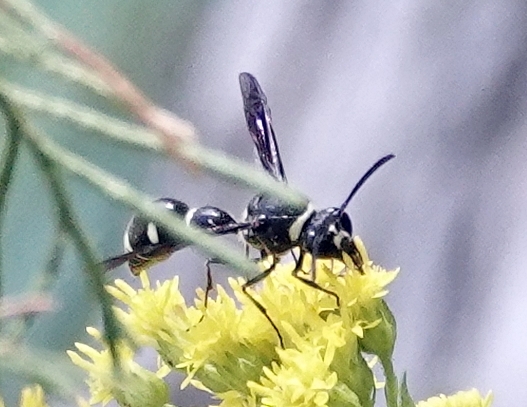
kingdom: Animalia
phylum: Arthropoda
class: Insecta
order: Hymenoptera
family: Vespidae
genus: Eumenes
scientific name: Eumenes fraternus
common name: Fraternal potter wasp
